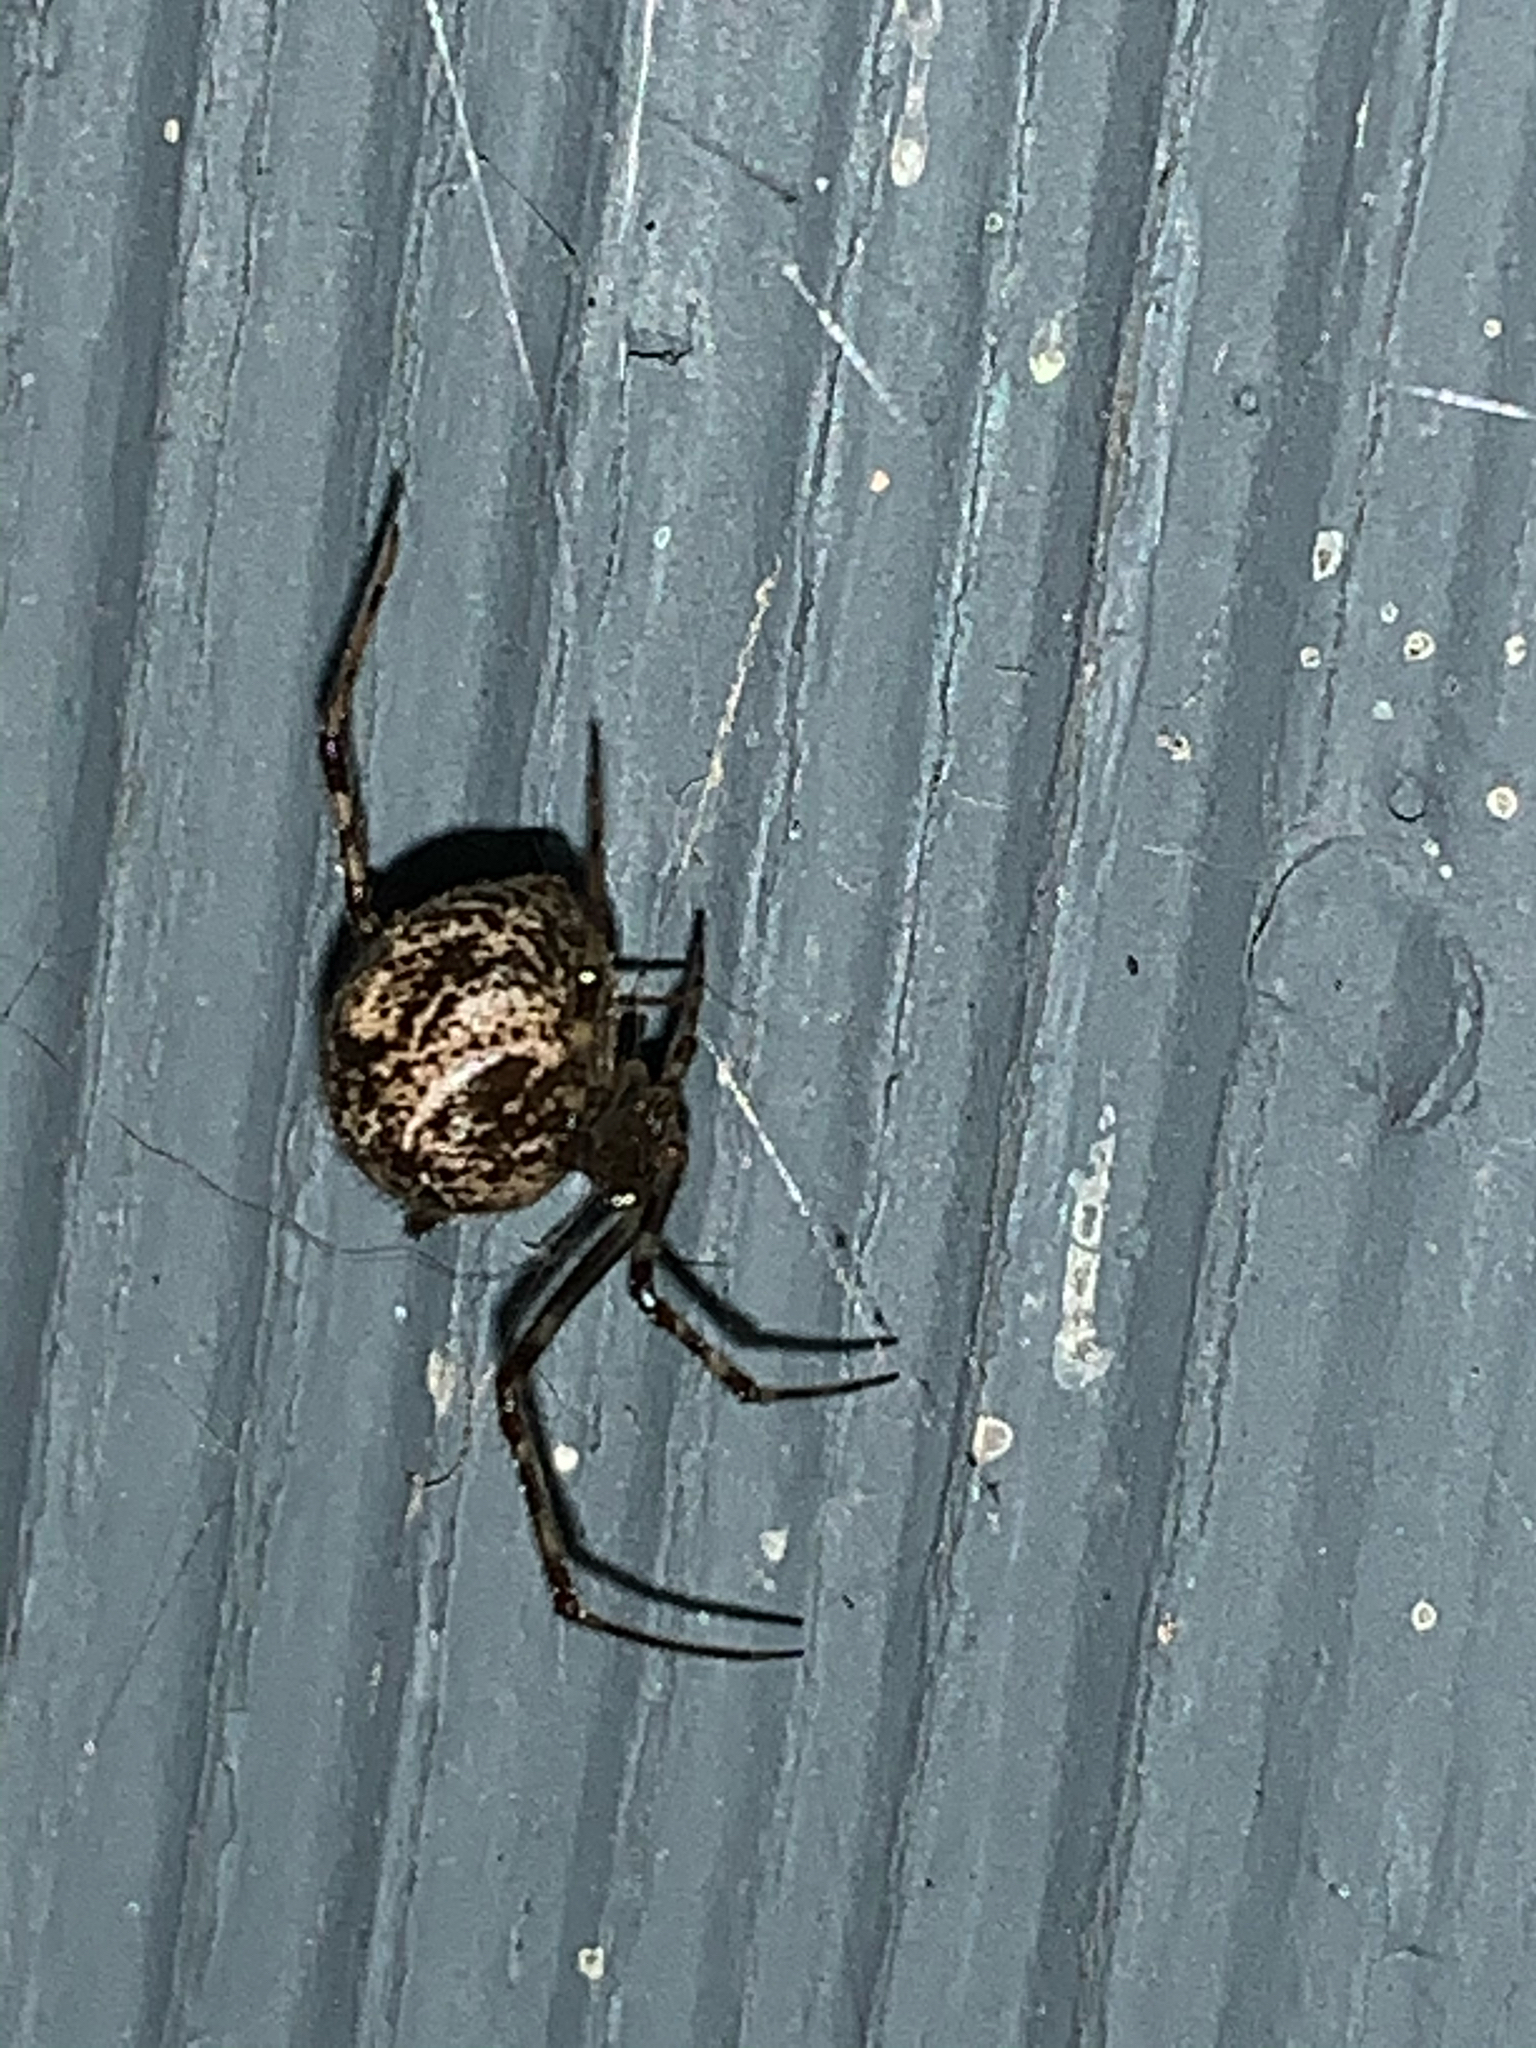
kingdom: Animalia
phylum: Arthropoda
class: Arachnida
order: Araneae
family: Theridiidae
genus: Parasteatoda
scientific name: Parasteatoda tepidariorum
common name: Common house spider
